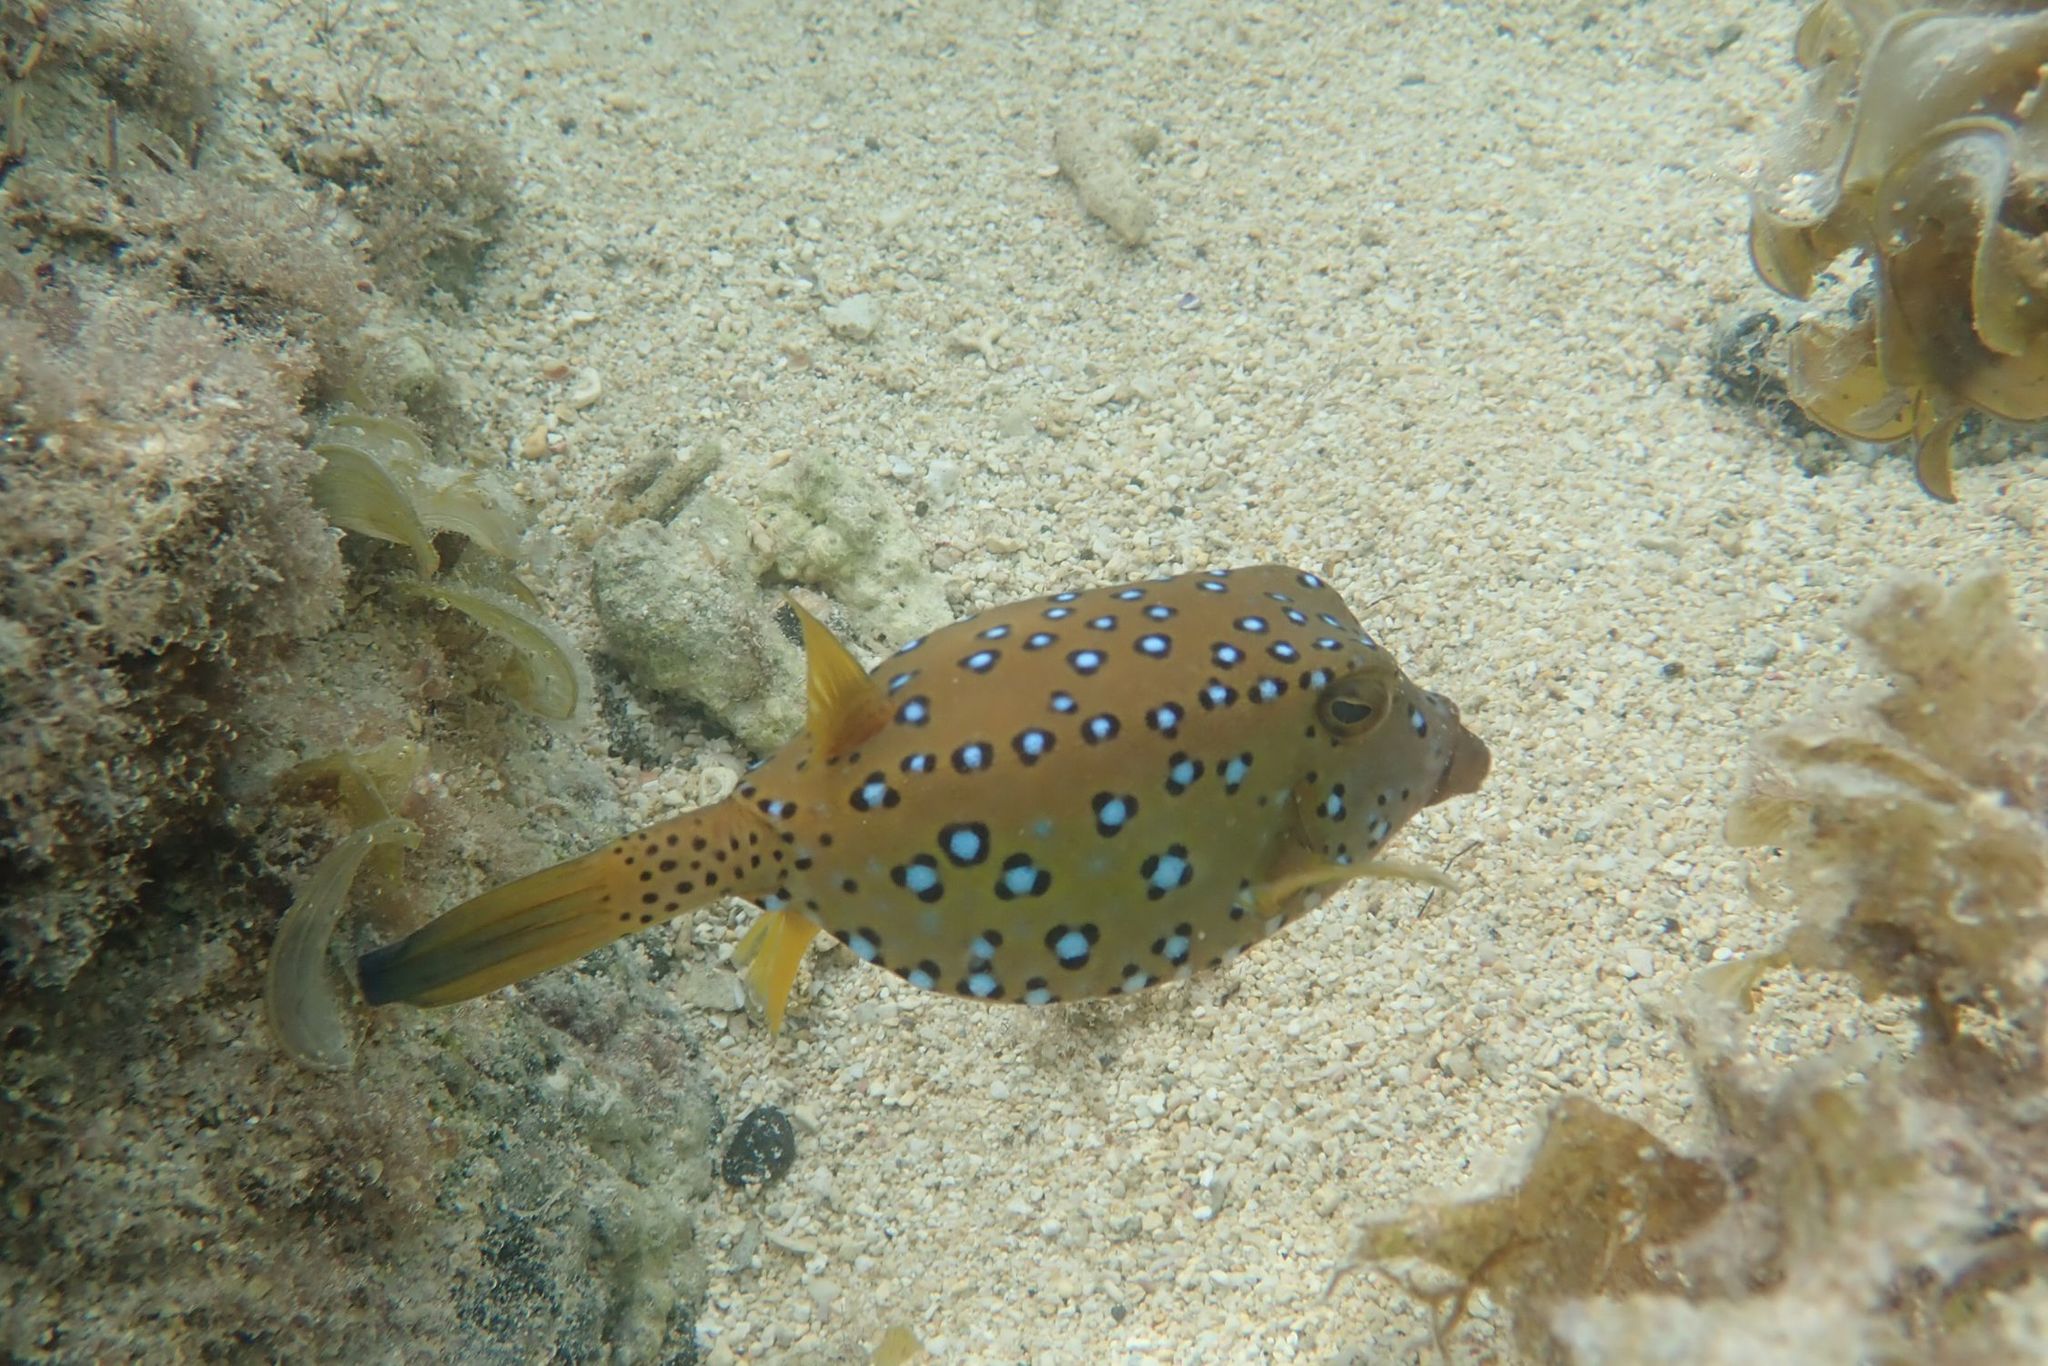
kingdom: Animalia
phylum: Chordata
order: Tetraodontiformes
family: Ostraciidae
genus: Ostracion
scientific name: Ostracion cubicus
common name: Cube trunkfish
